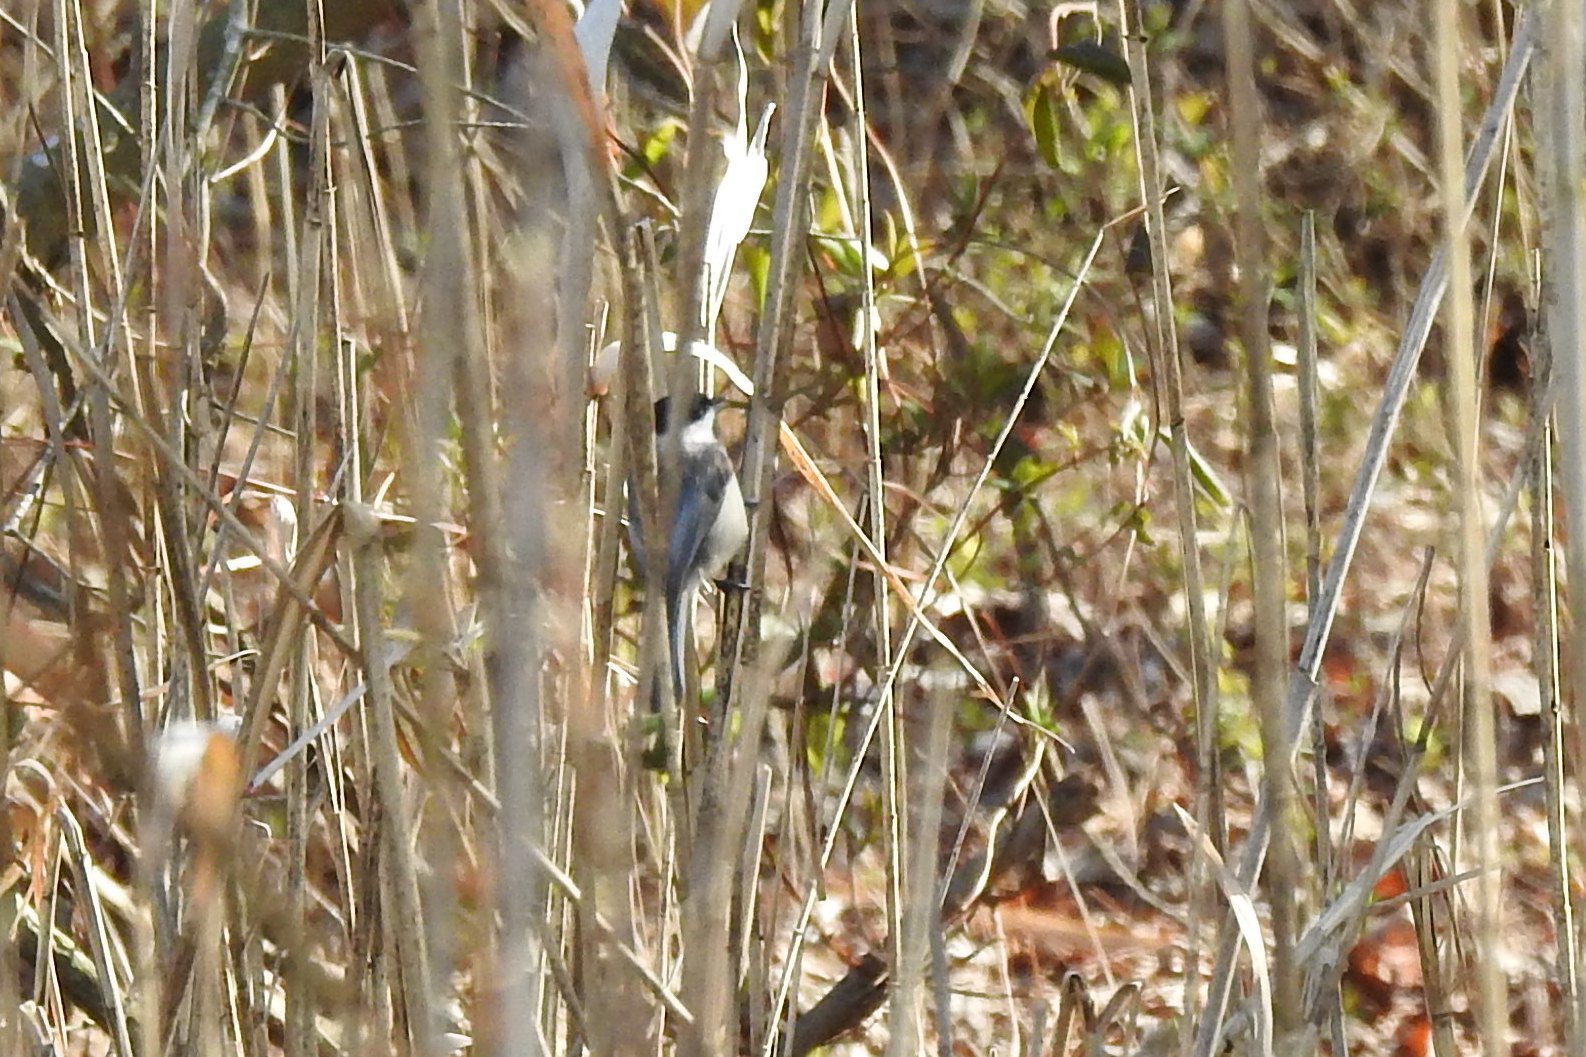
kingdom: Animalia
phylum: Chordata
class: Aves
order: Passeriformes
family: Paridae
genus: Poecile
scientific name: Poecile carolinensis
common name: Carolina chickadee
